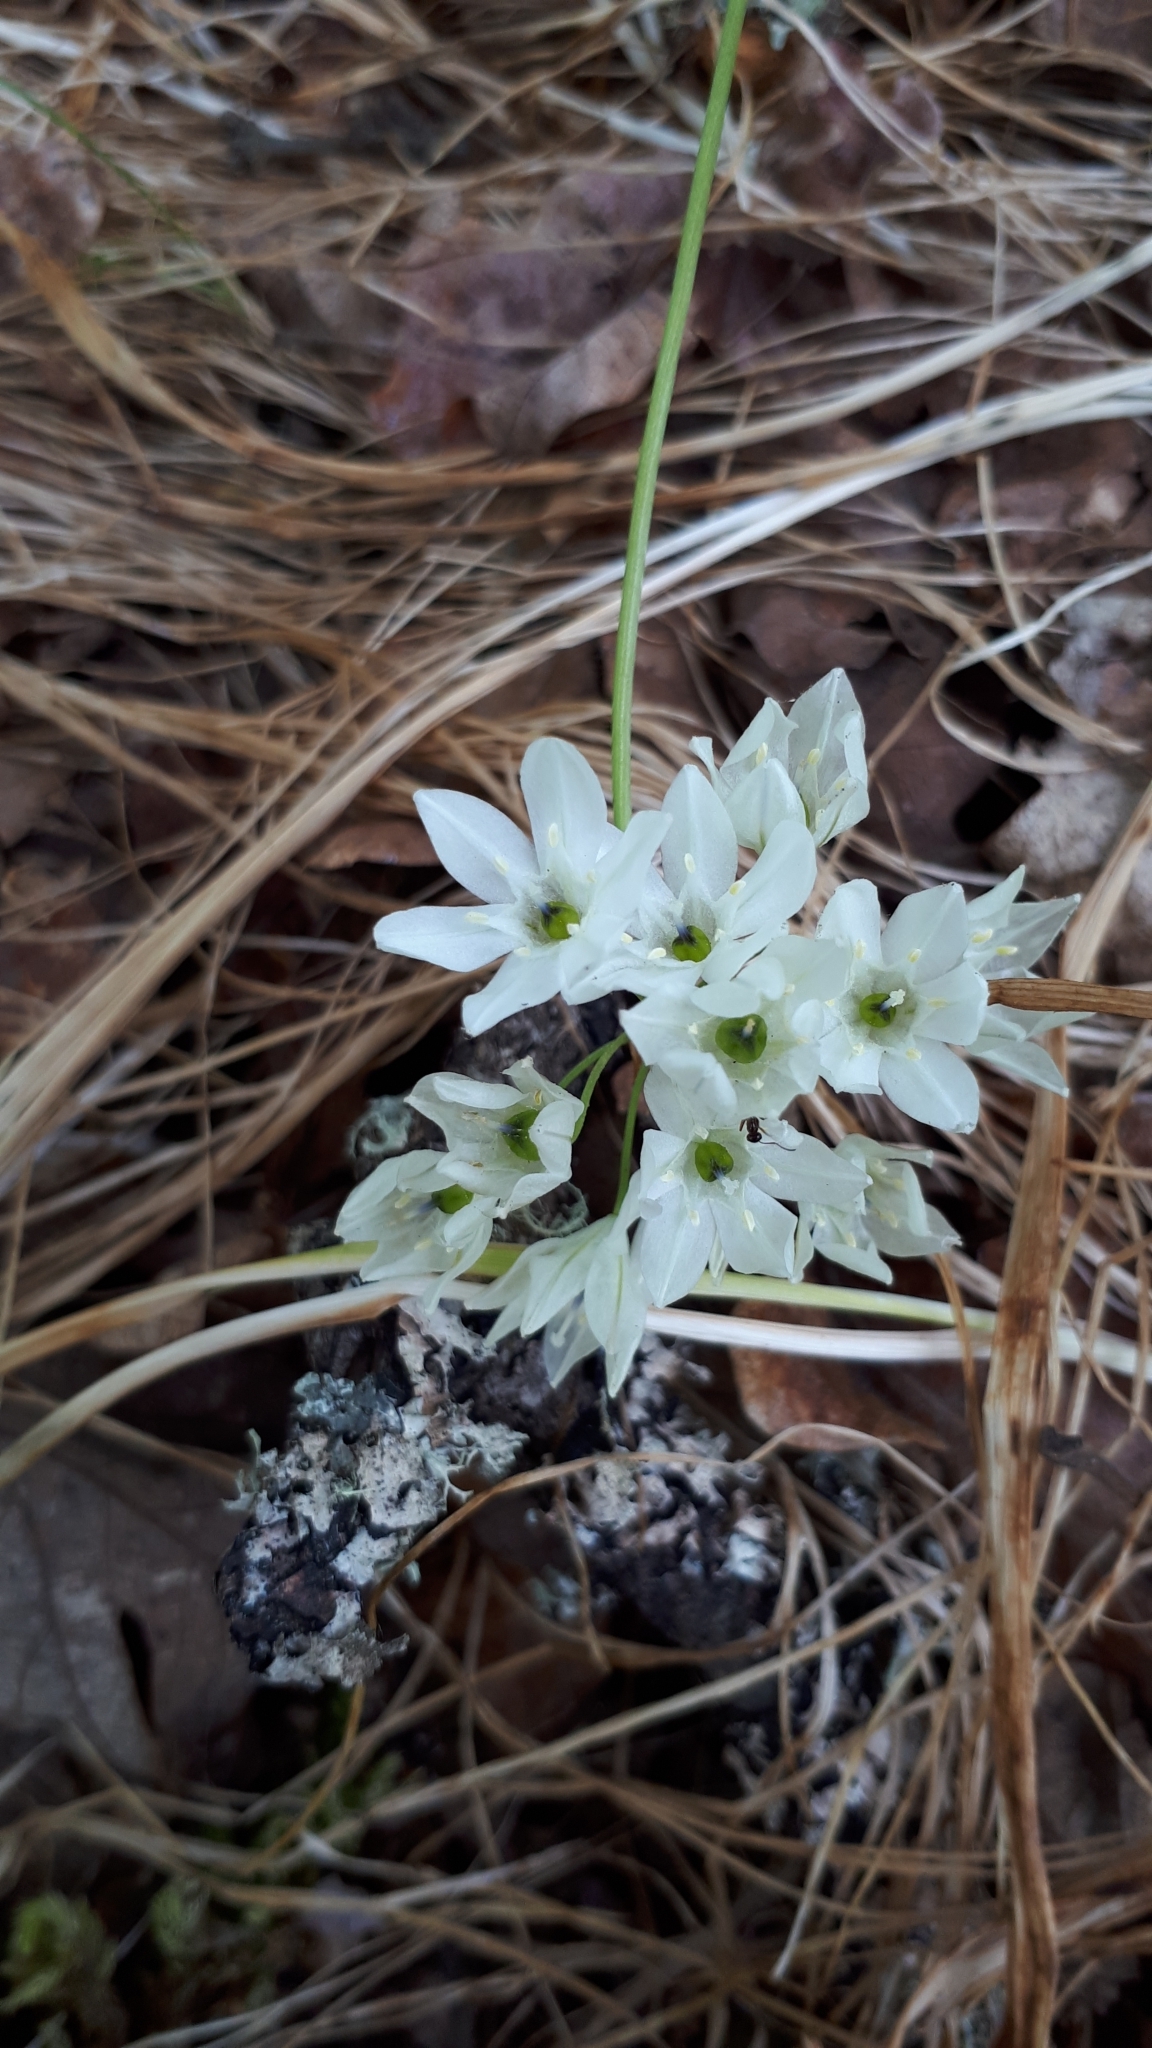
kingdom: Plantae
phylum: Tracheophyta
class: Liliopsida
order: Asparagales
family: Asparagaceae
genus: Triteleia
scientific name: Triteleia hyacinthina
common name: White brodiaea
